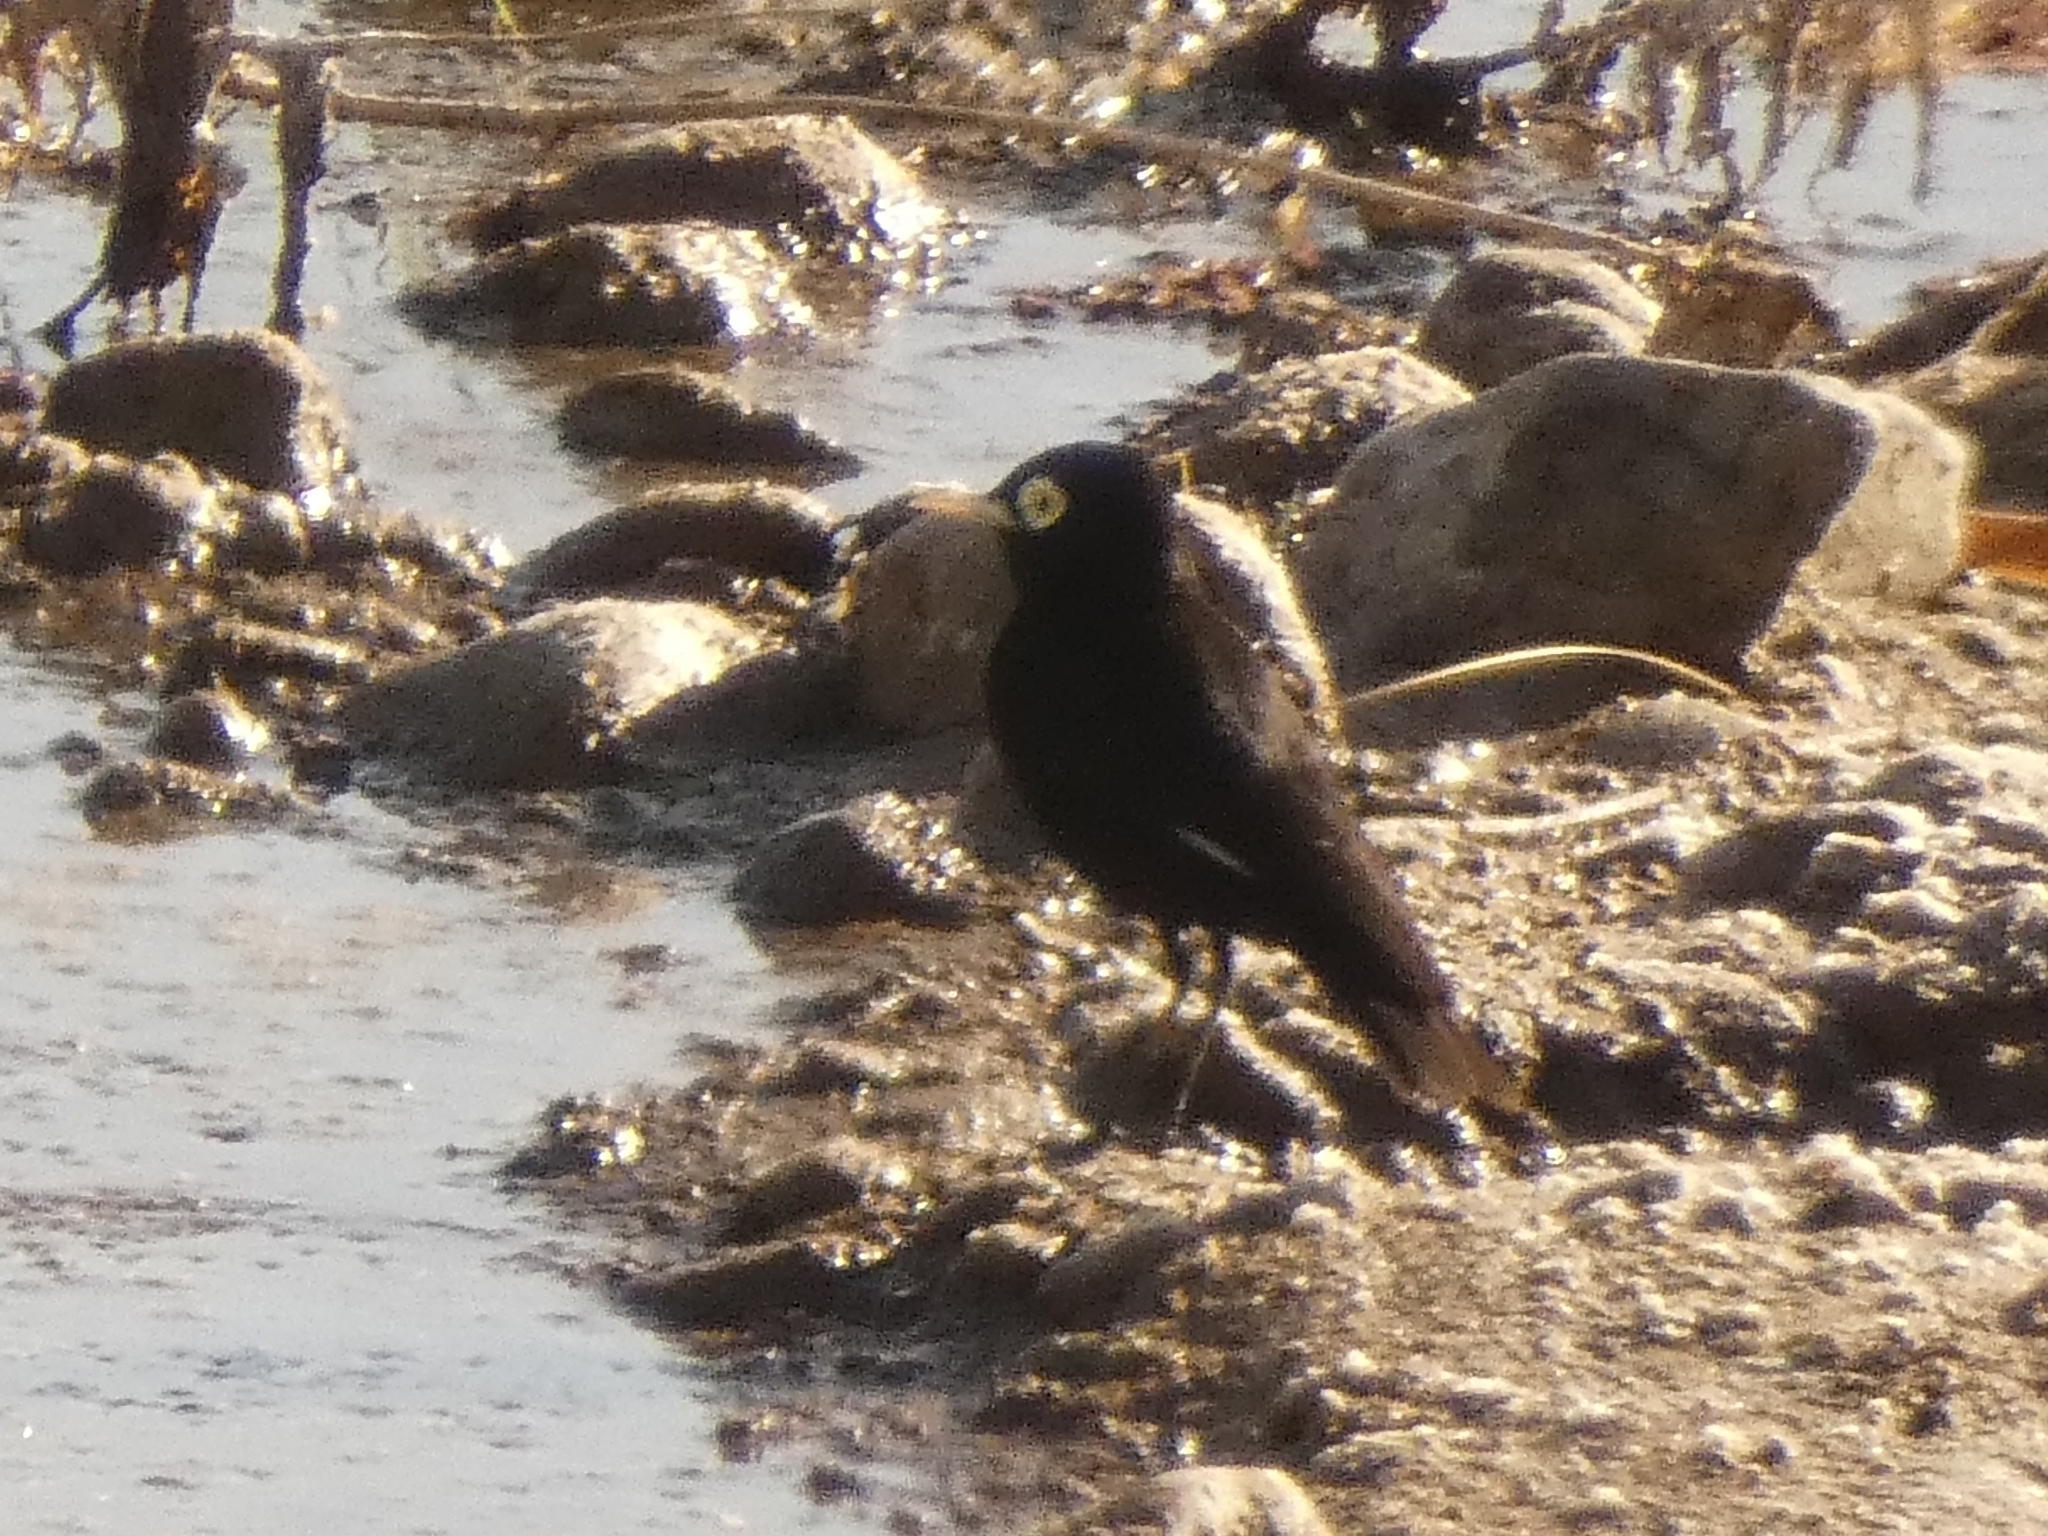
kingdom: Animalia
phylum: Chordata
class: Aves
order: Passeriformes
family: Tyrannidae
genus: Hymenops
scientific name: Hymenops perspicillatus
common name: Spectacled tyrant
